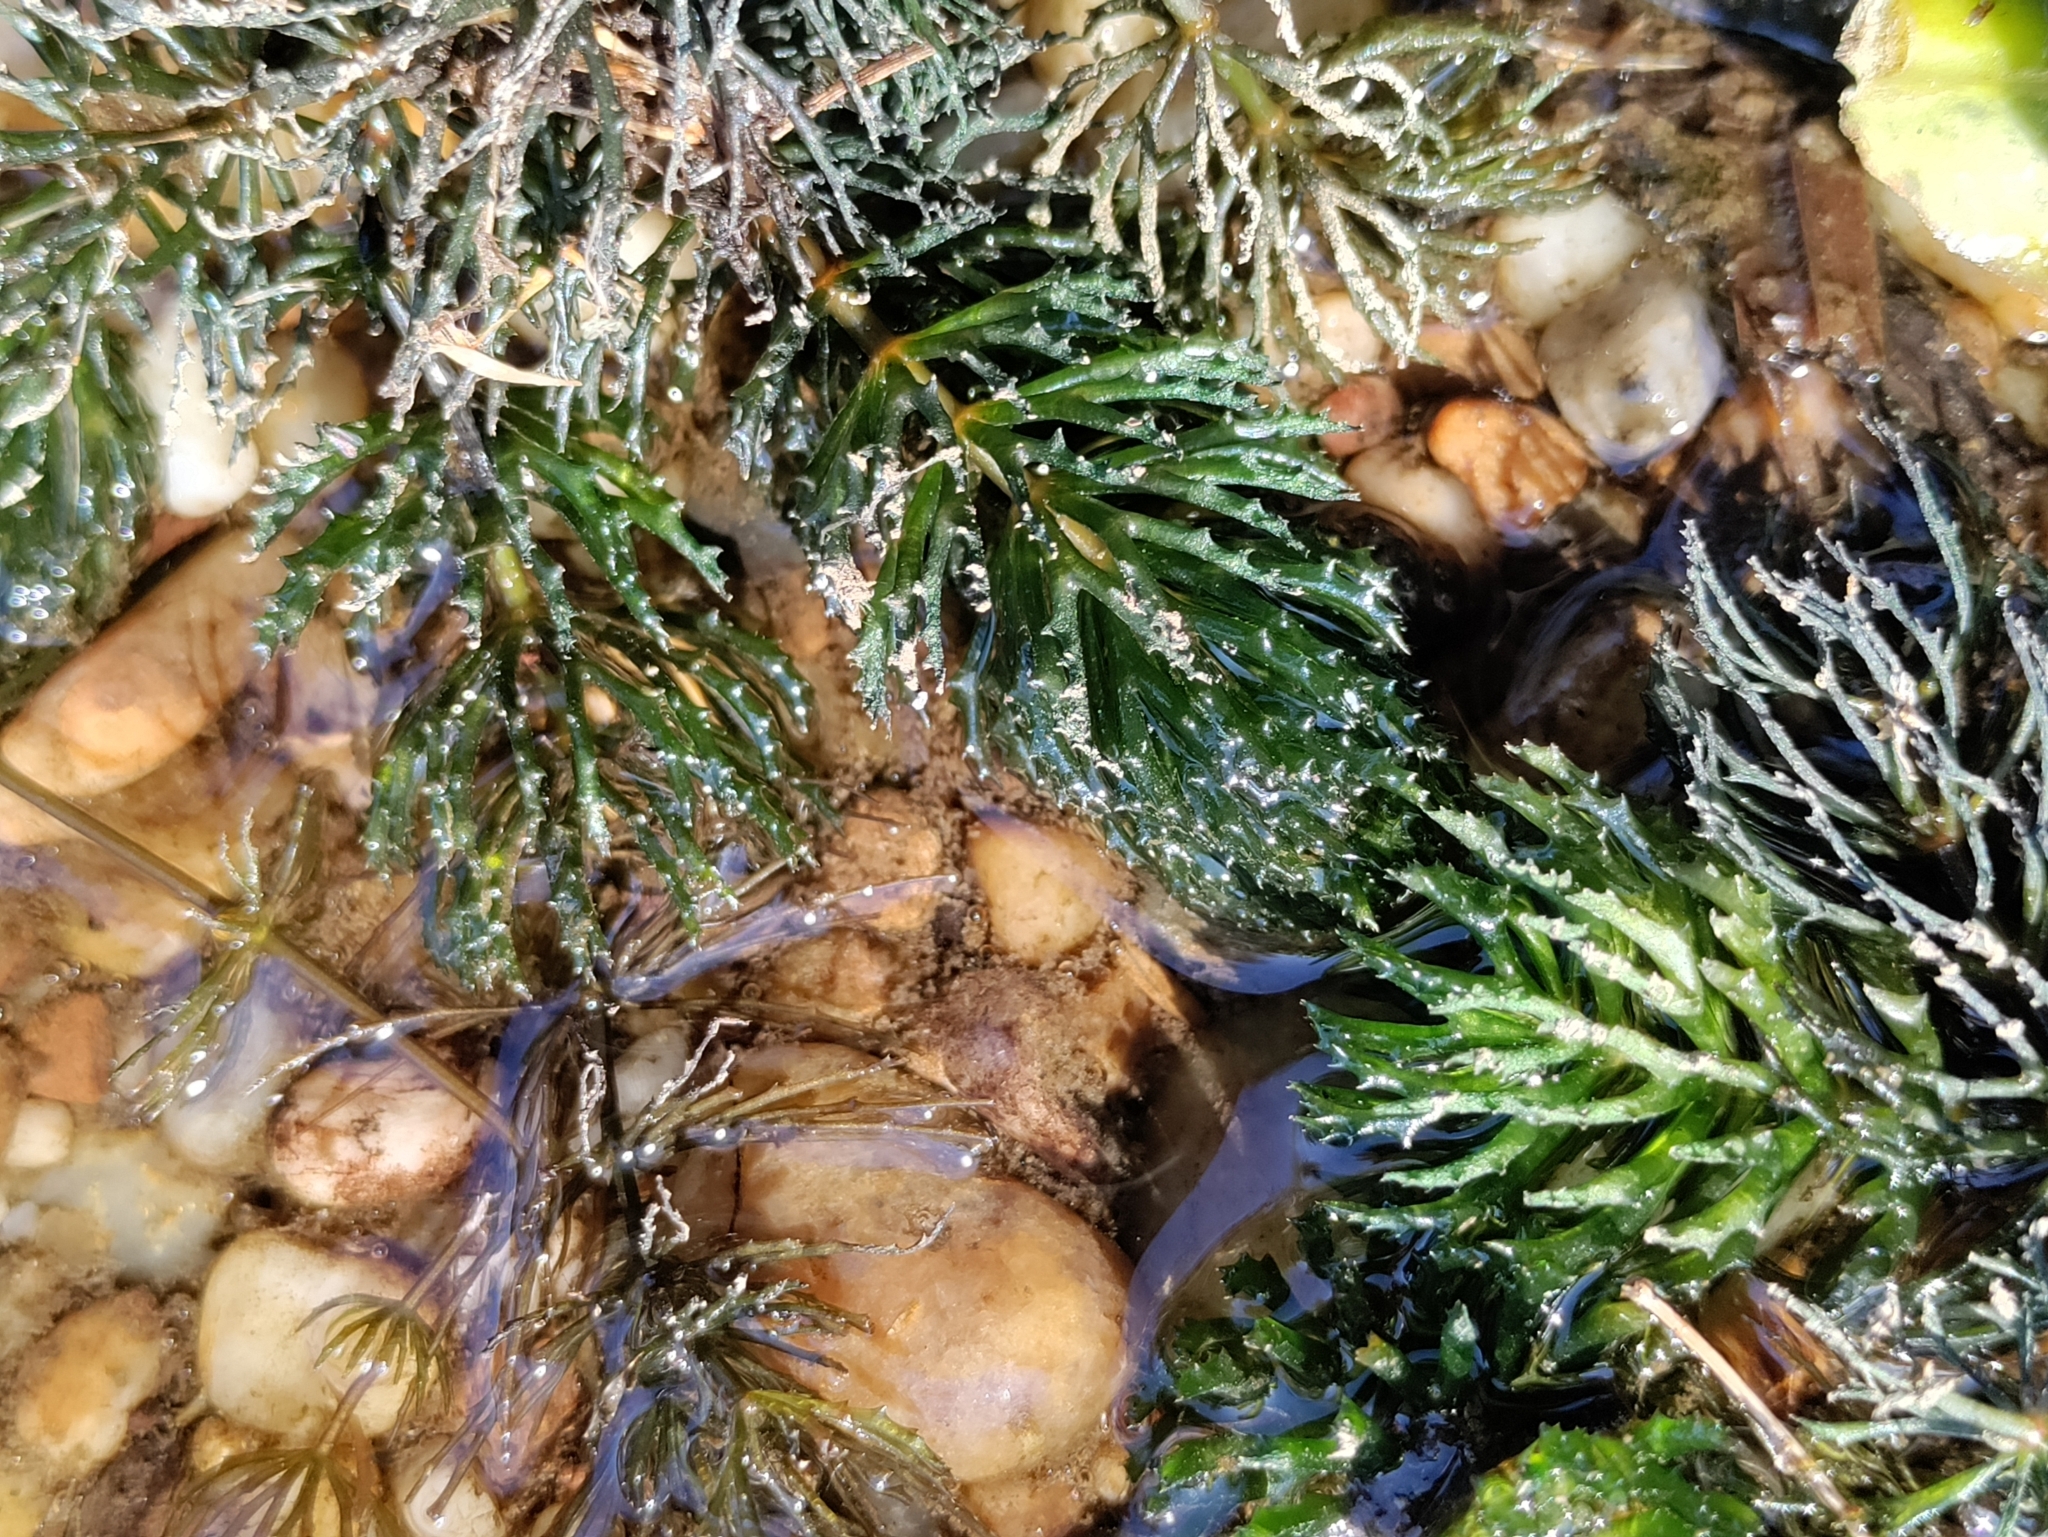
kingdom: Plantae
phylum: Tracheophyta
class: Magnoliopsida
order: Ceratophyllales
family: Ceratophyllaceae
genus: Ceratophyllum
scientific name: Ceratophyllum demersum
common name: Rigid hornwort
